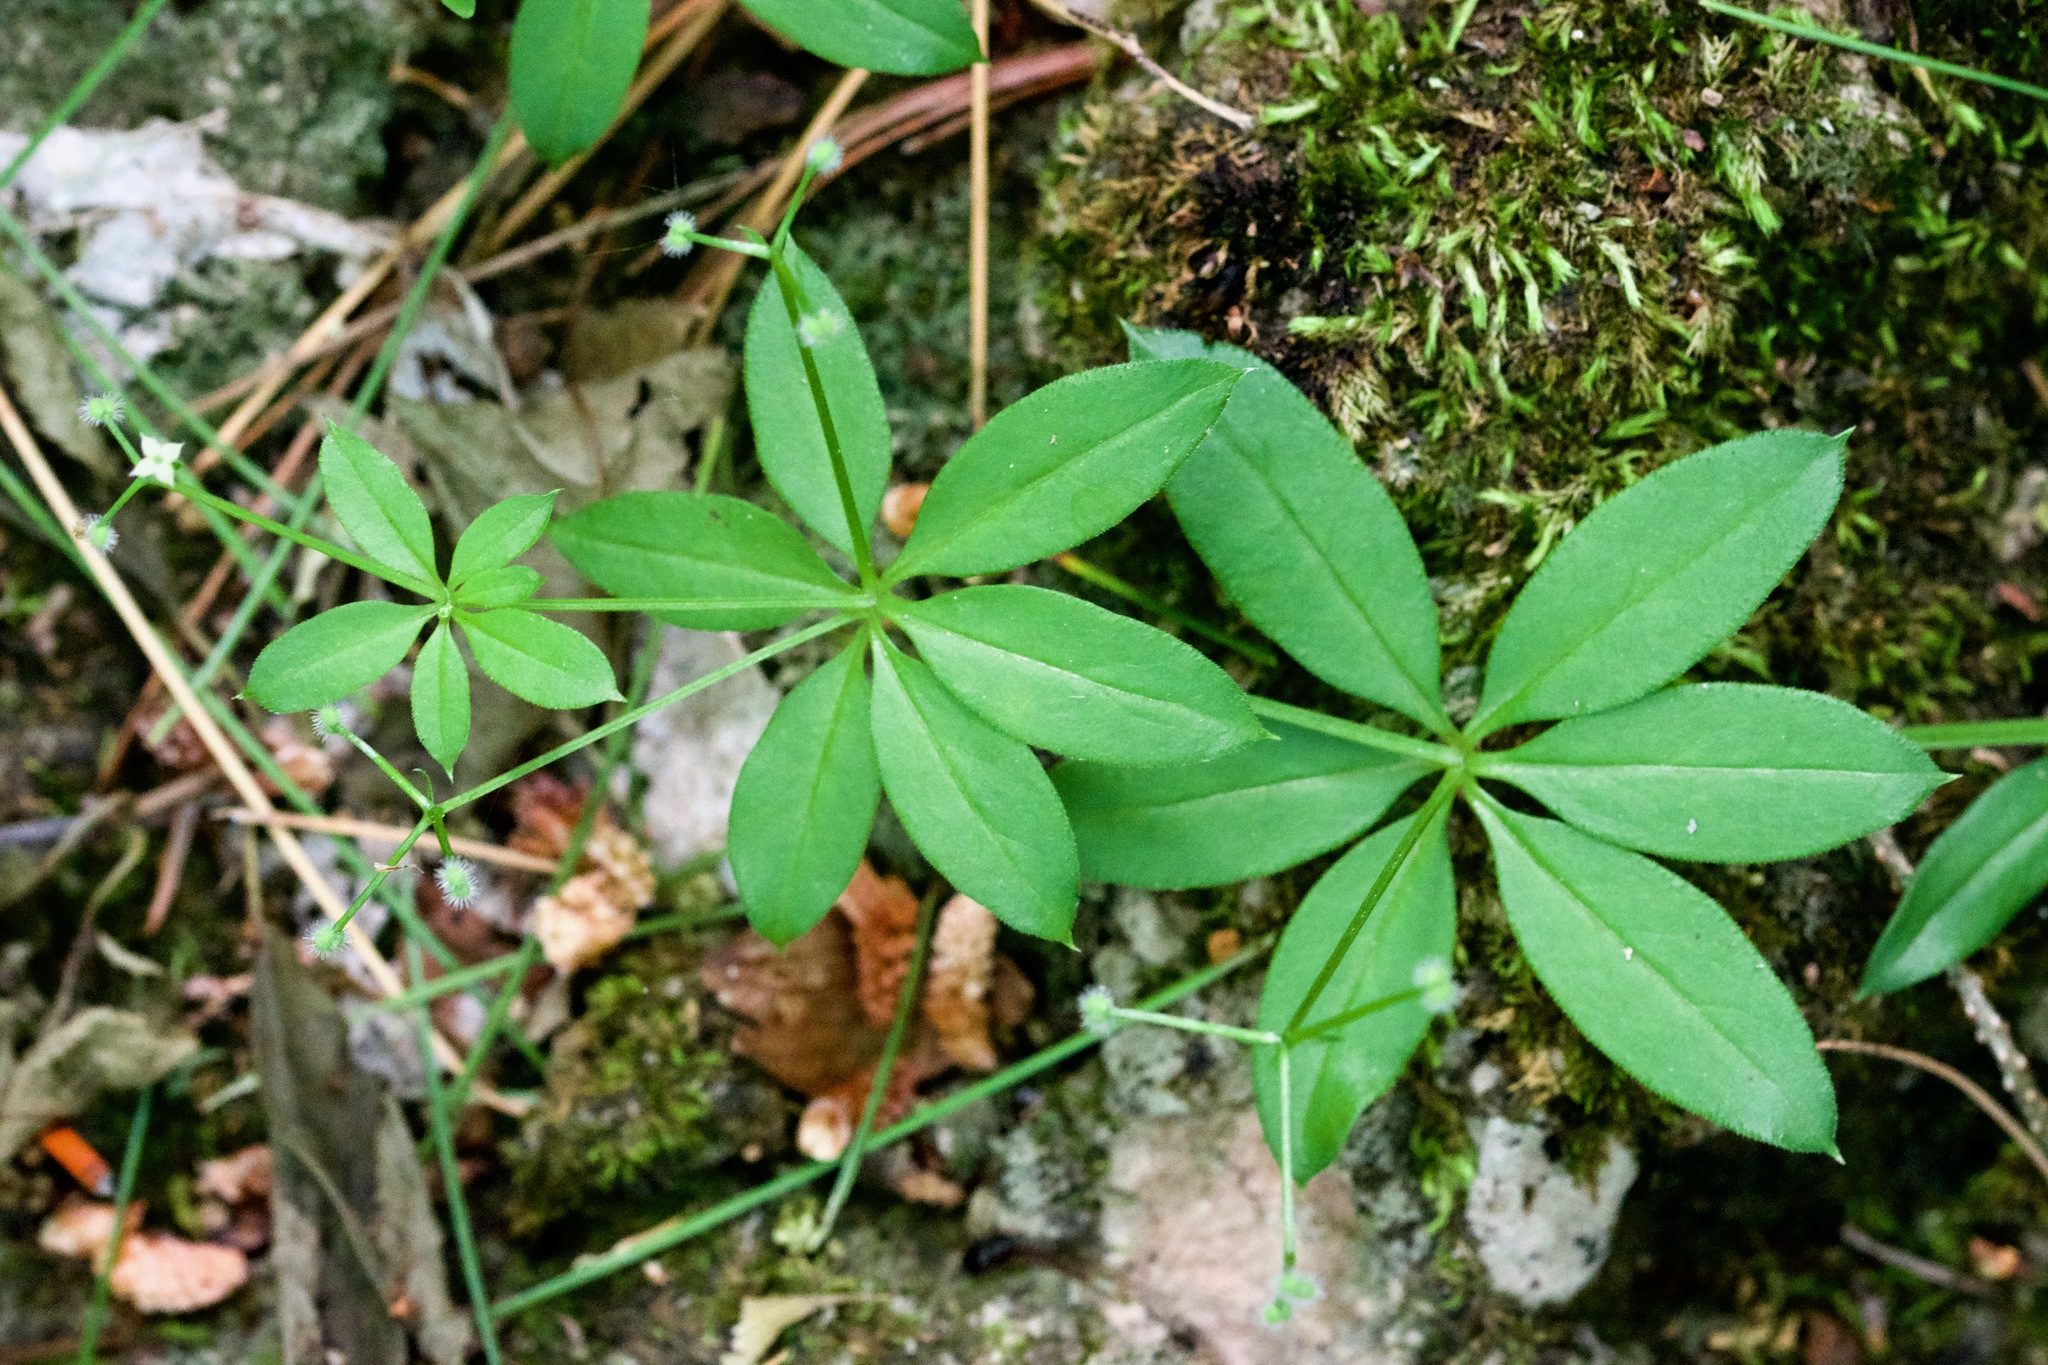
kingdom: Plantae
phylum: Tracheophyta
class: Magnoliopsida
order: Gentianales
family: Rubiaceae
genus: Galium
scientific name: Galium triflorum
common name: Fragrant bedstraw
